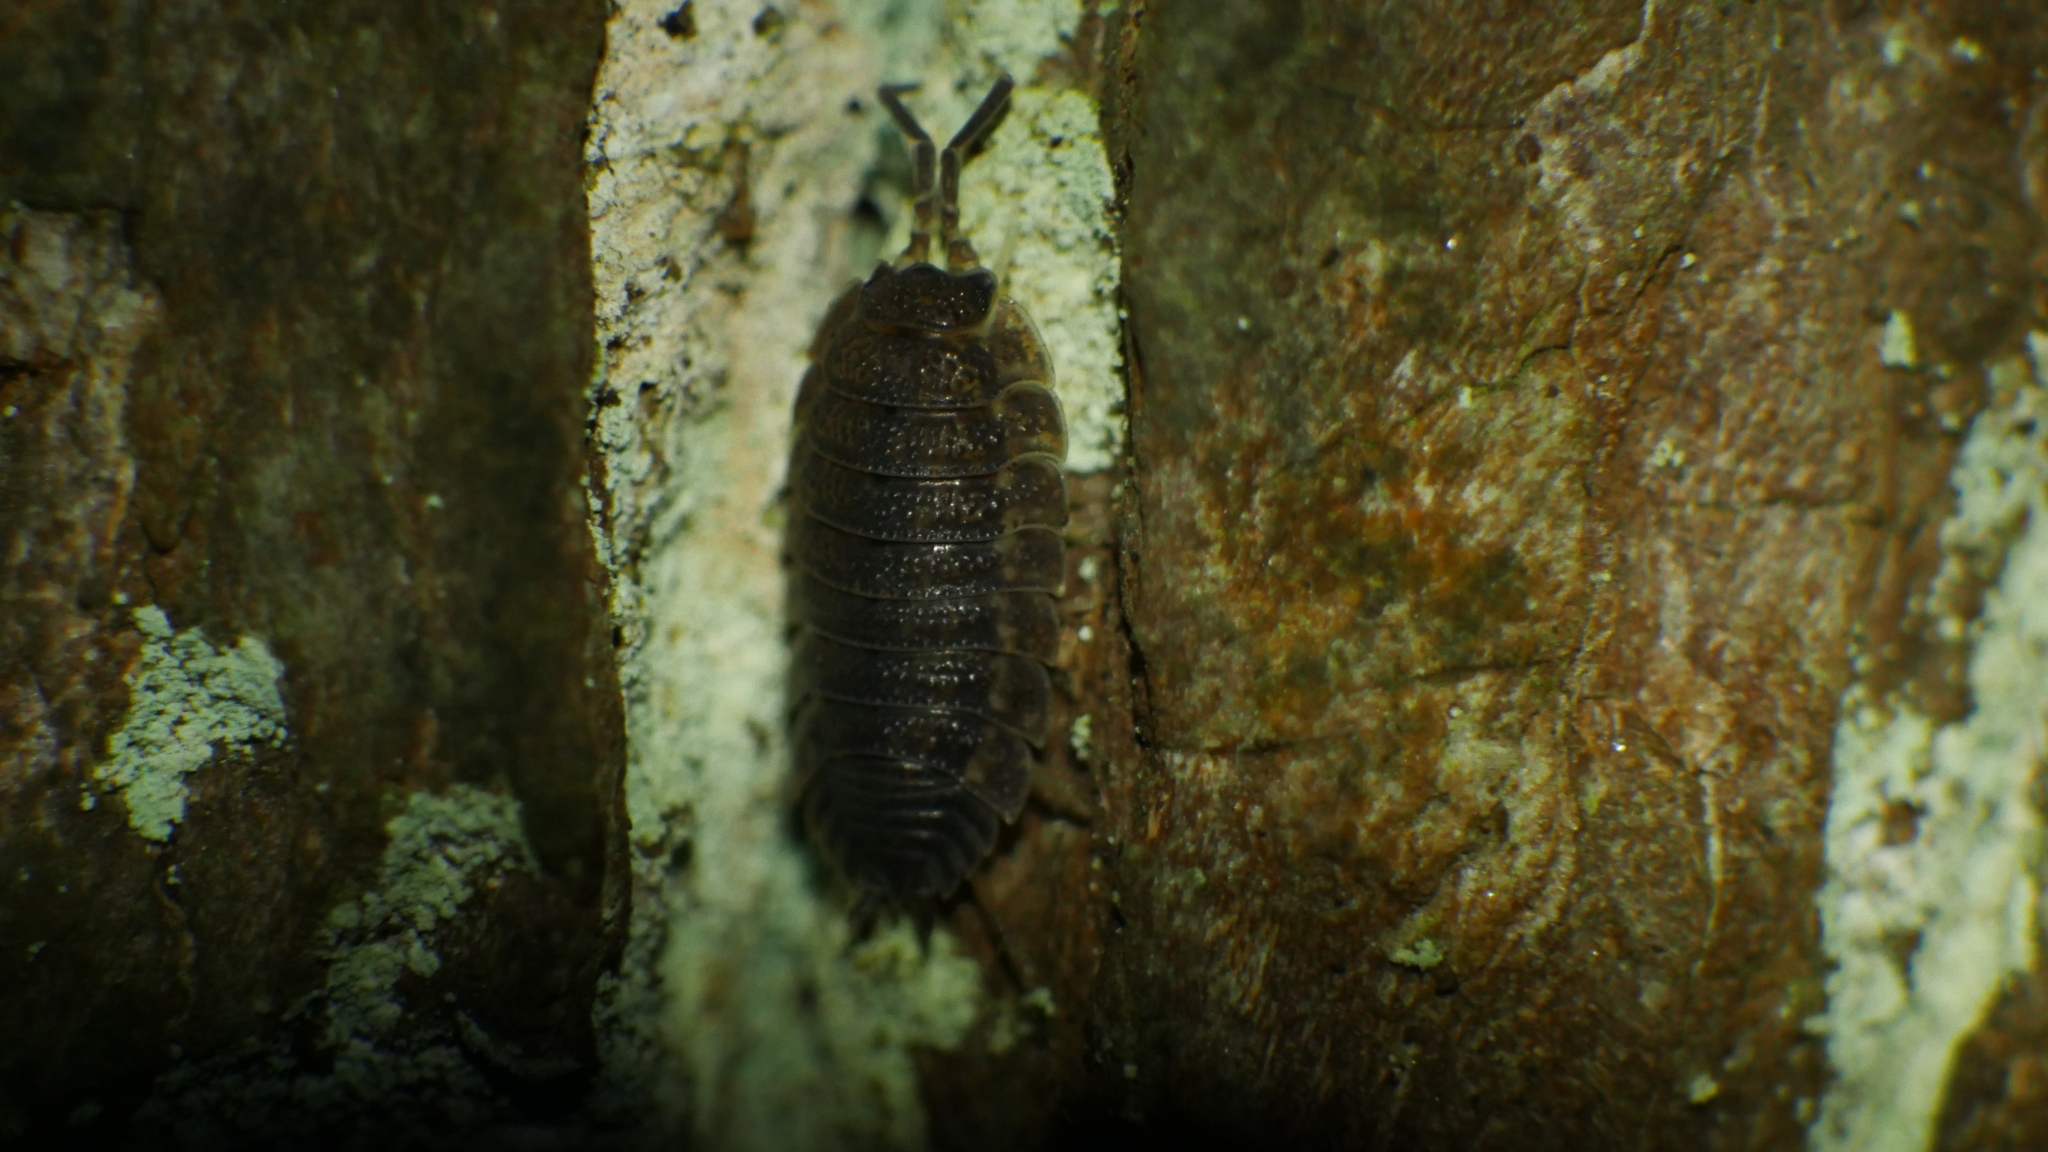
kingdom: Animalia
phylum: Arthropoda
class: Malacostraca
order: Isopoda
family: Porcellionidae
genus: Porcellio
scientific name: Porcellio scaber
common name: Common rough woodlouse
